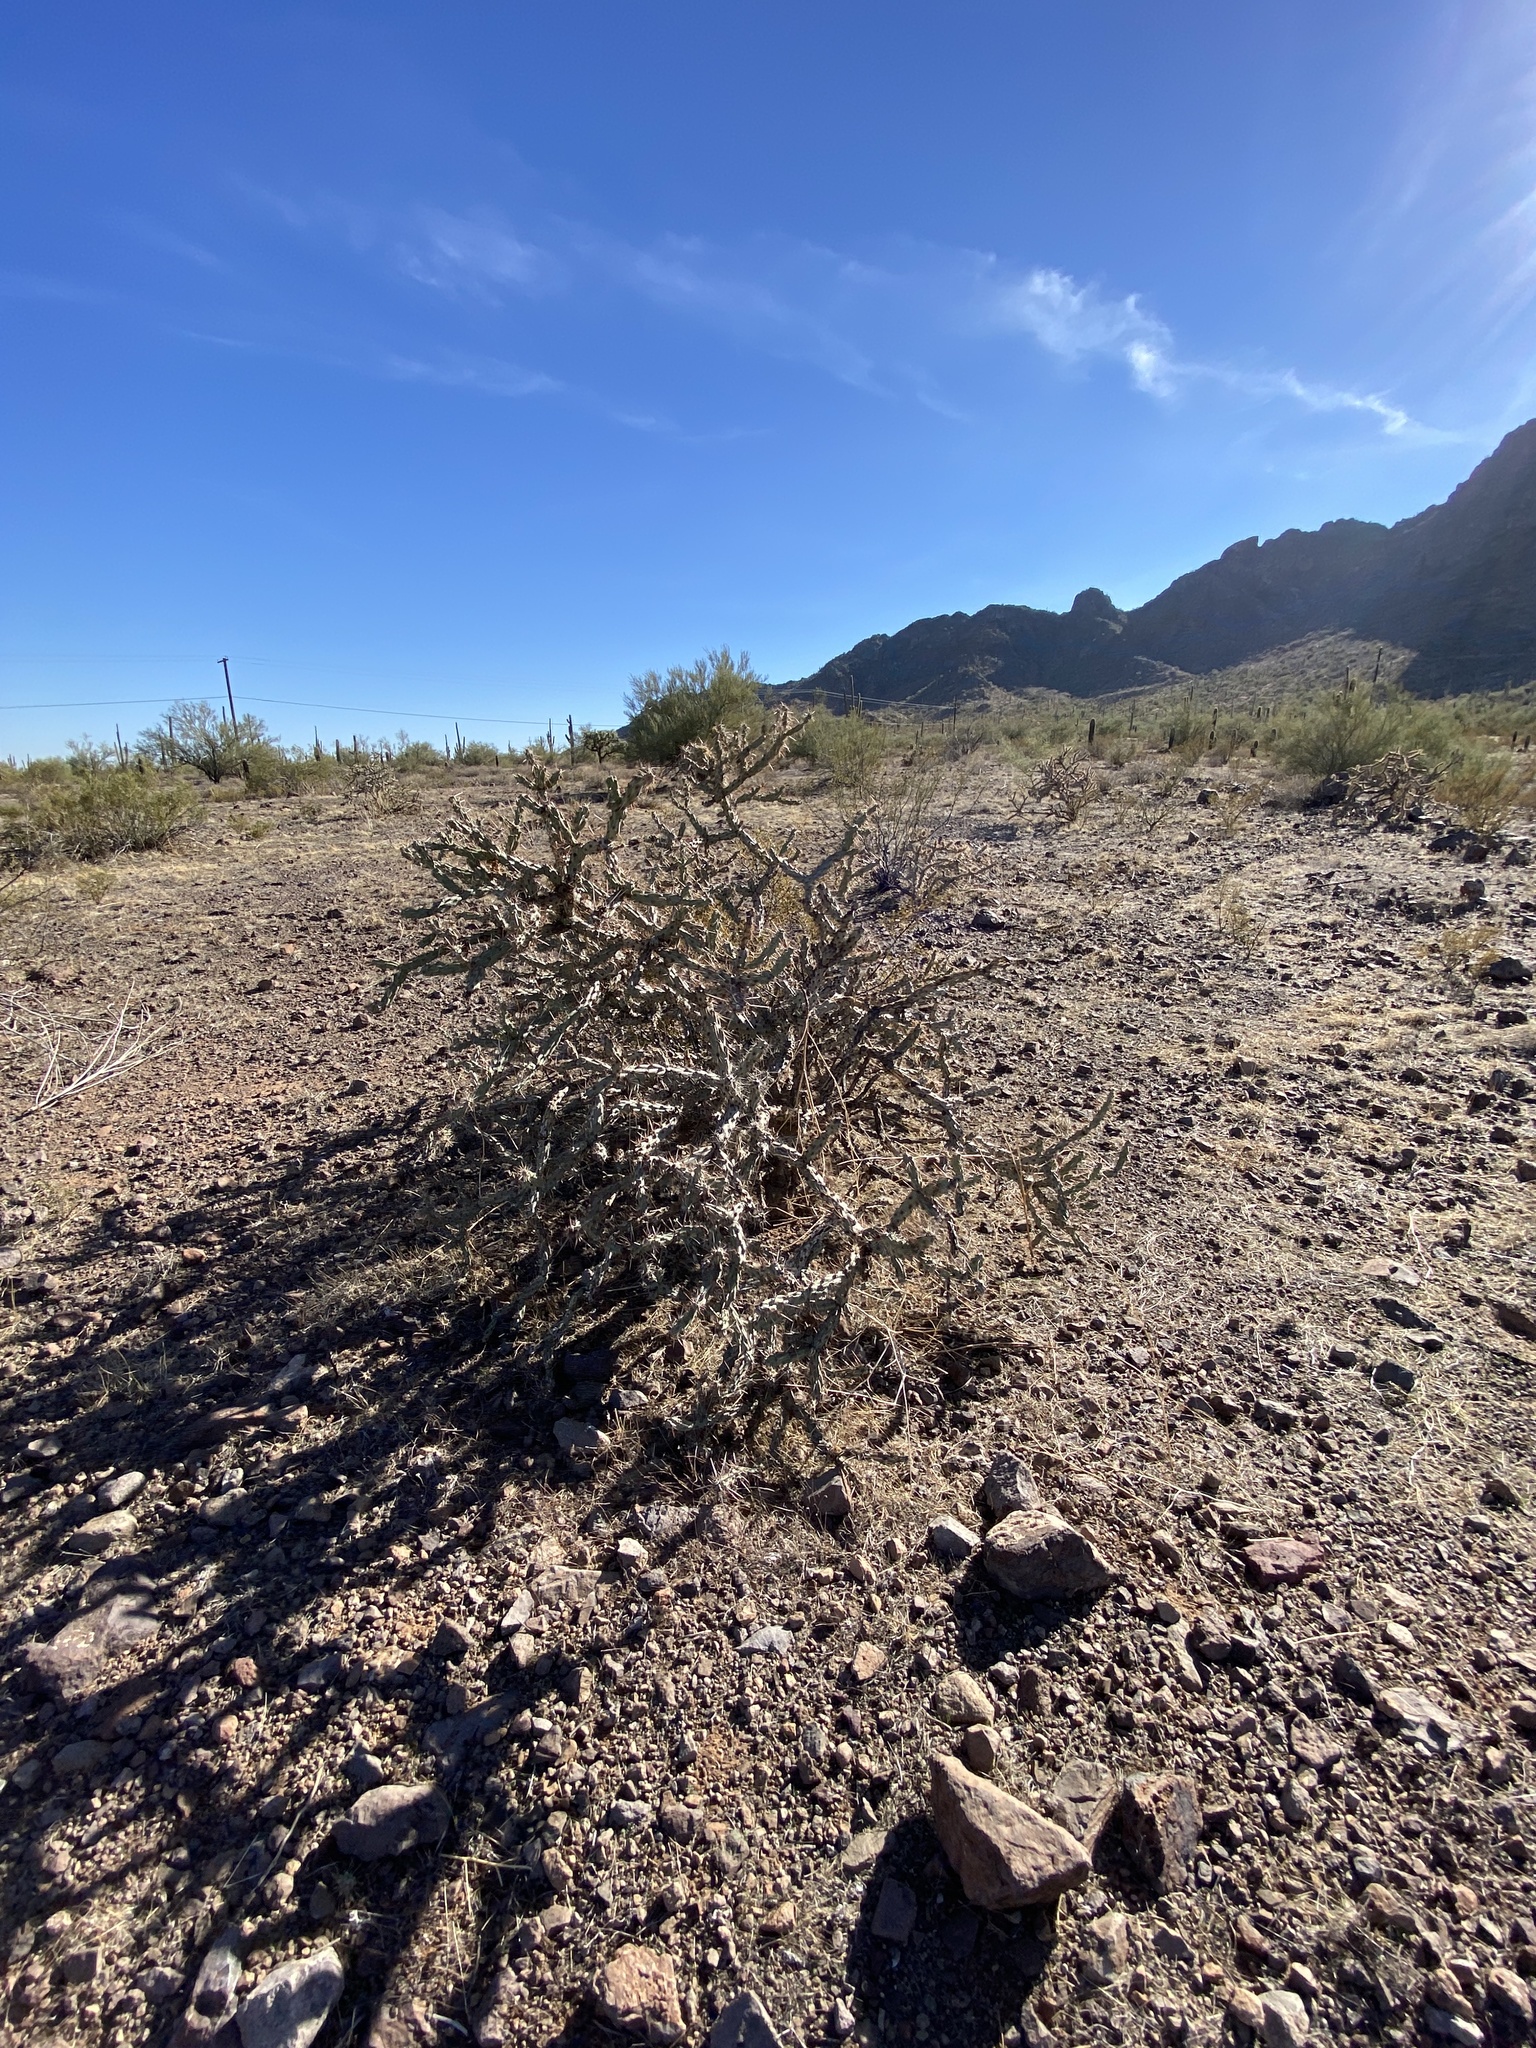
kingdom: Plantae
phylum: Tracheophyta
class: Magnoliopsida
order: Caryophyllales
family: Cactaceae
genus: Cylindropuntia
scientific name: Cylindropuntia acanthocarpa
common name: Buckhorn cholla
